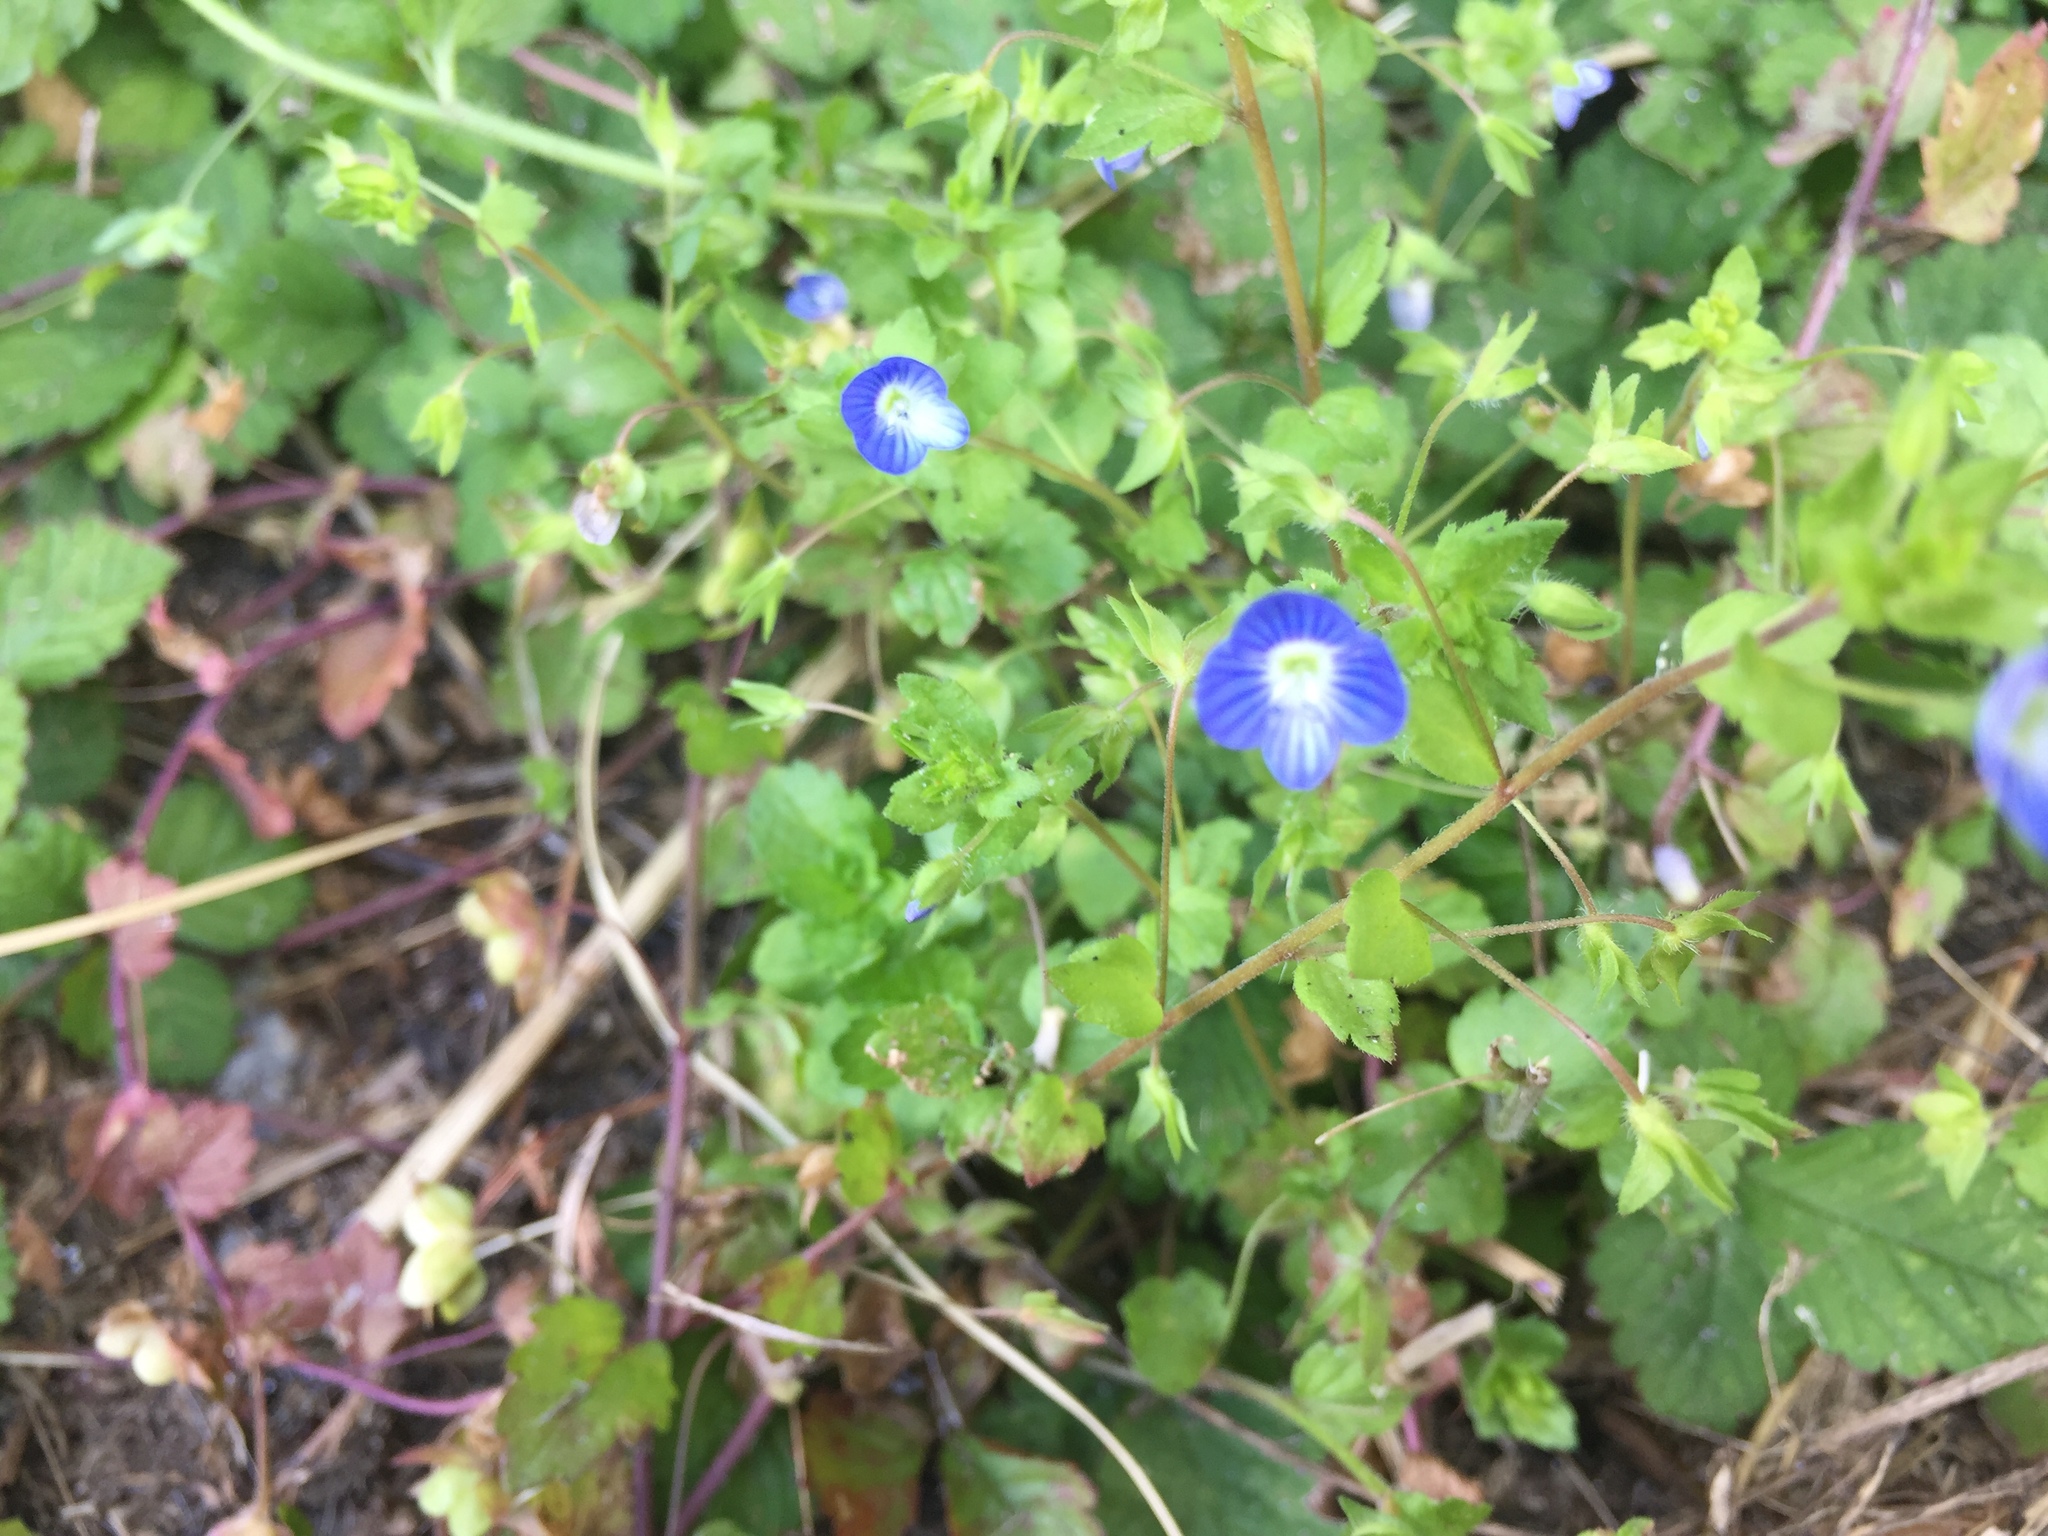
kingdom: Plantae
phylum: Tracheophyta
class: Magnoliopsida
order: Lamiales
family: Plantaginaceae
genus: Veronica
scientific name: Veronica persica
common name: Common field-speedwell
